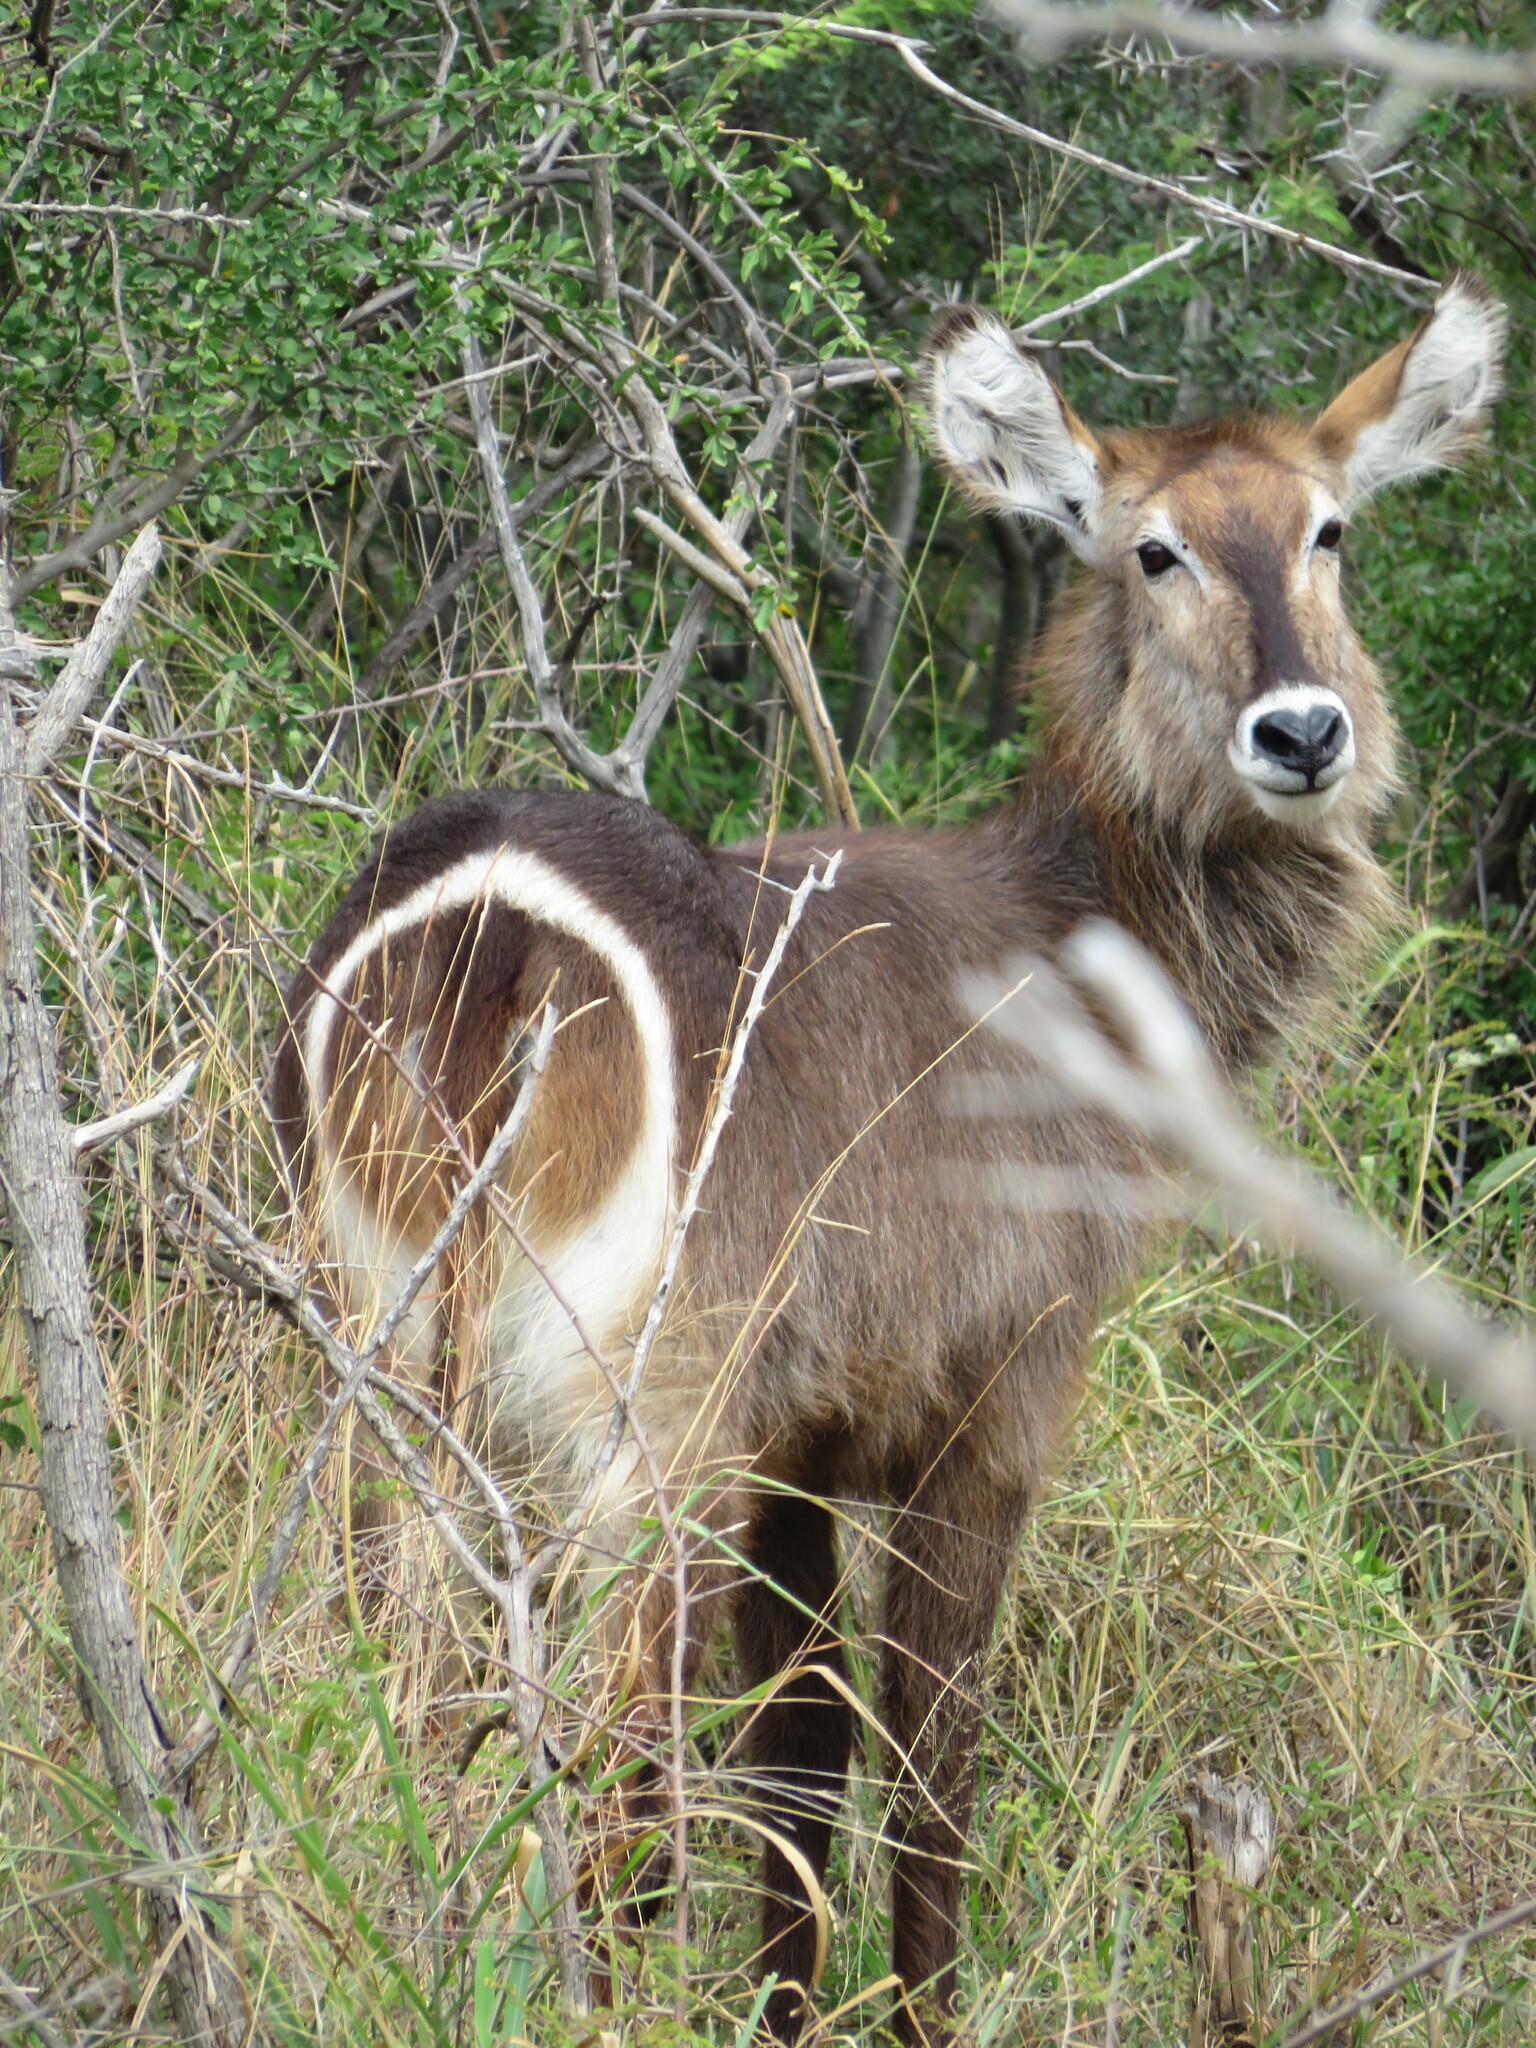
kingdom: Animalia
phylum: Chordata
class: Mammalia
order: Artiodactyla
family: Bovidae
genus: Kobus
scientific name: Kobus ellipsiprymnus
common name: Waterbuck
